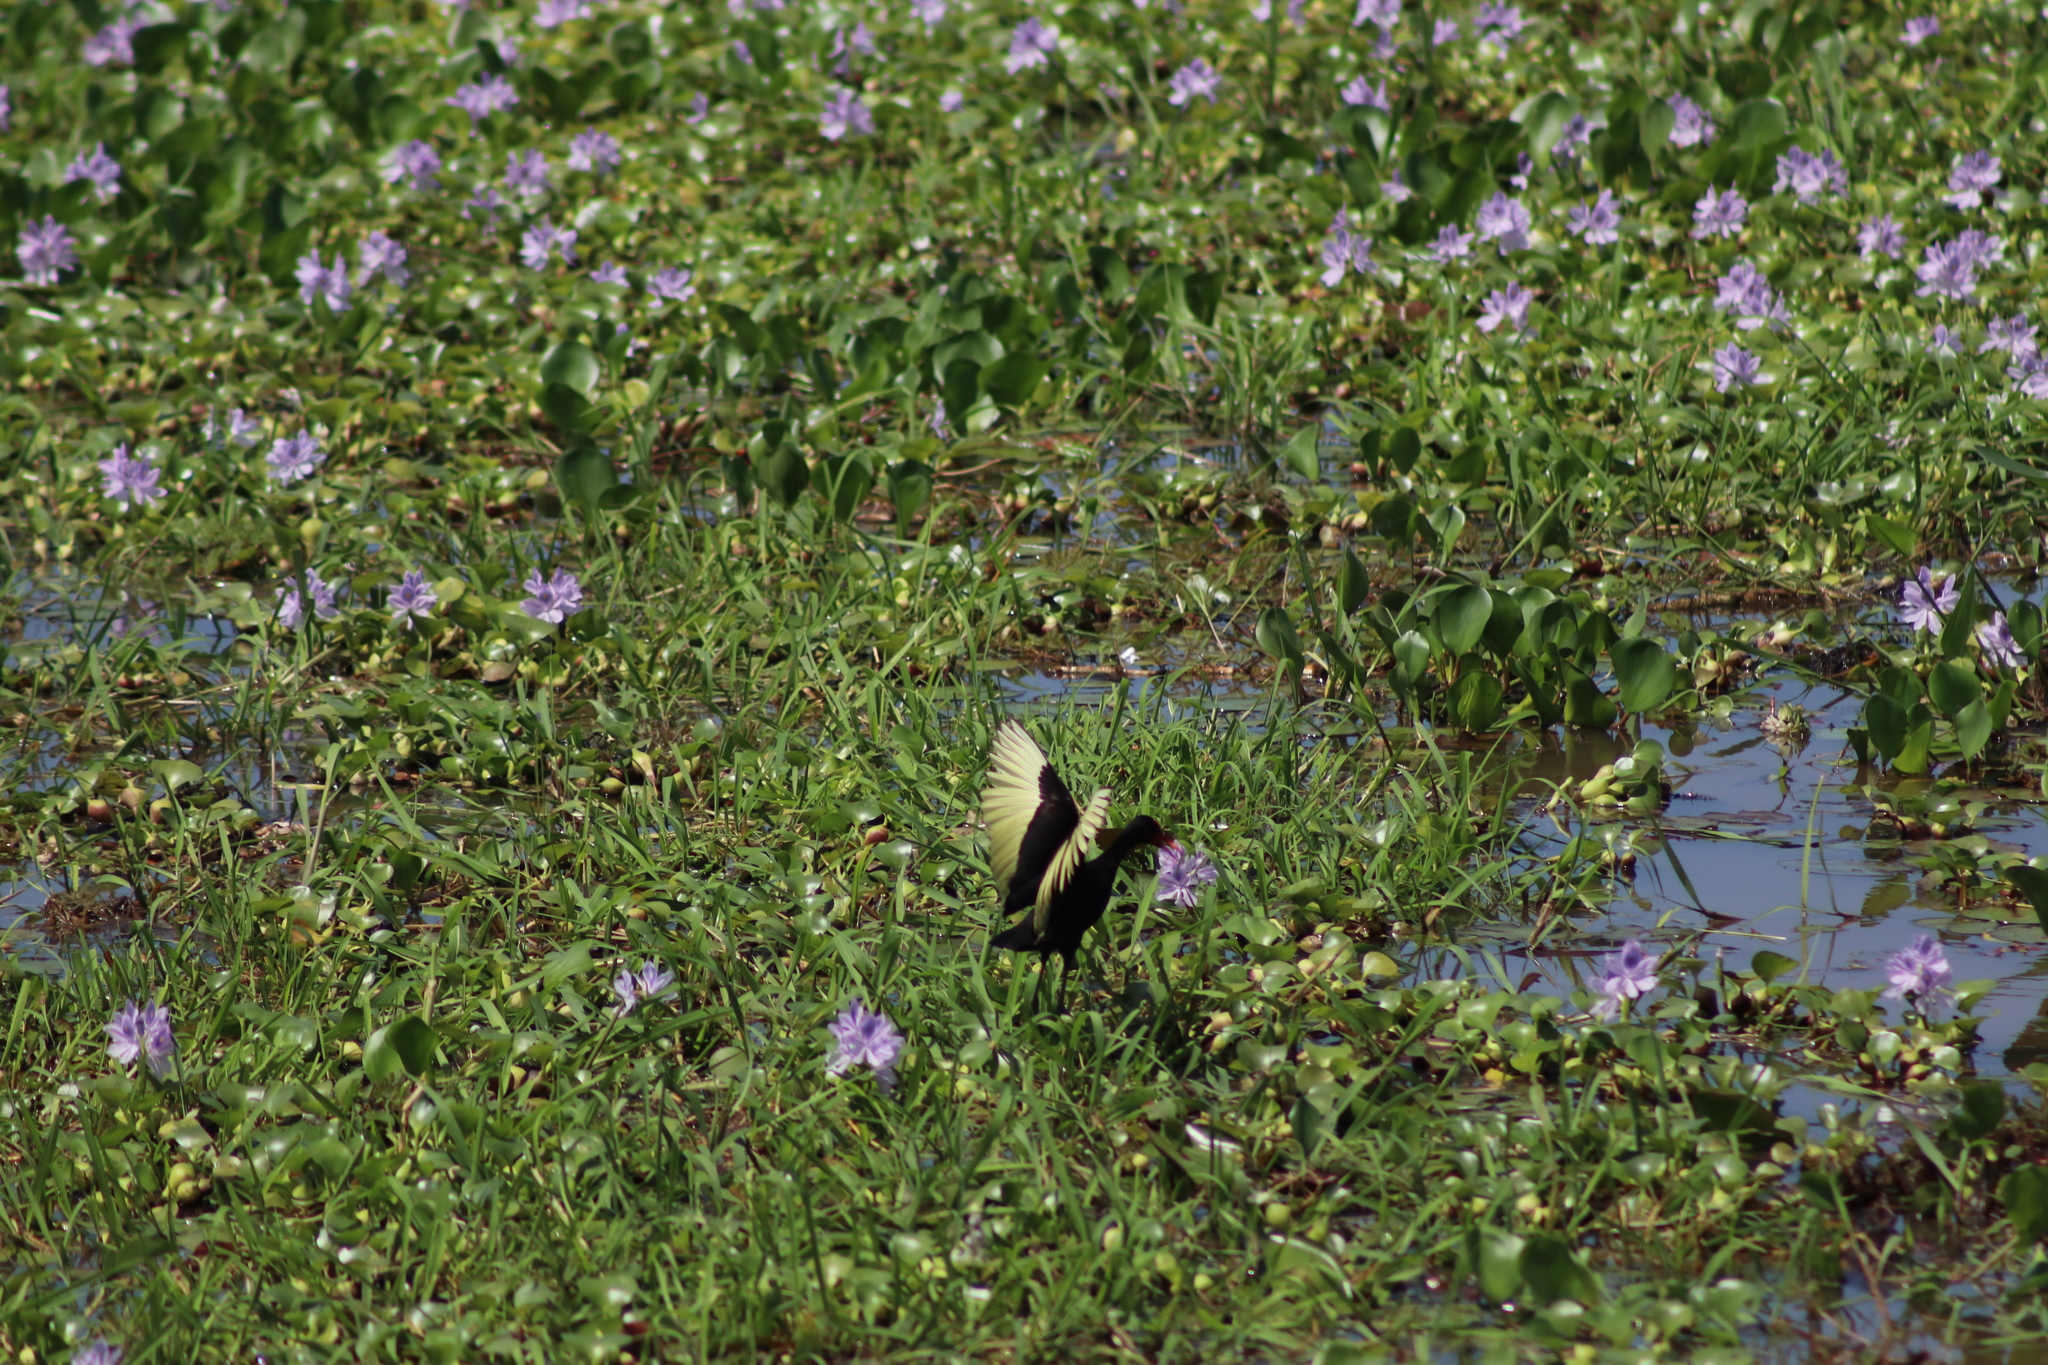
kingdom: Animalia
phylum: Chordata
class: Aves
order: Charadriiformes
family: Jacanidae
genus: Jacana
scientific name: Jacana jacana
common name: Wattled jacana
